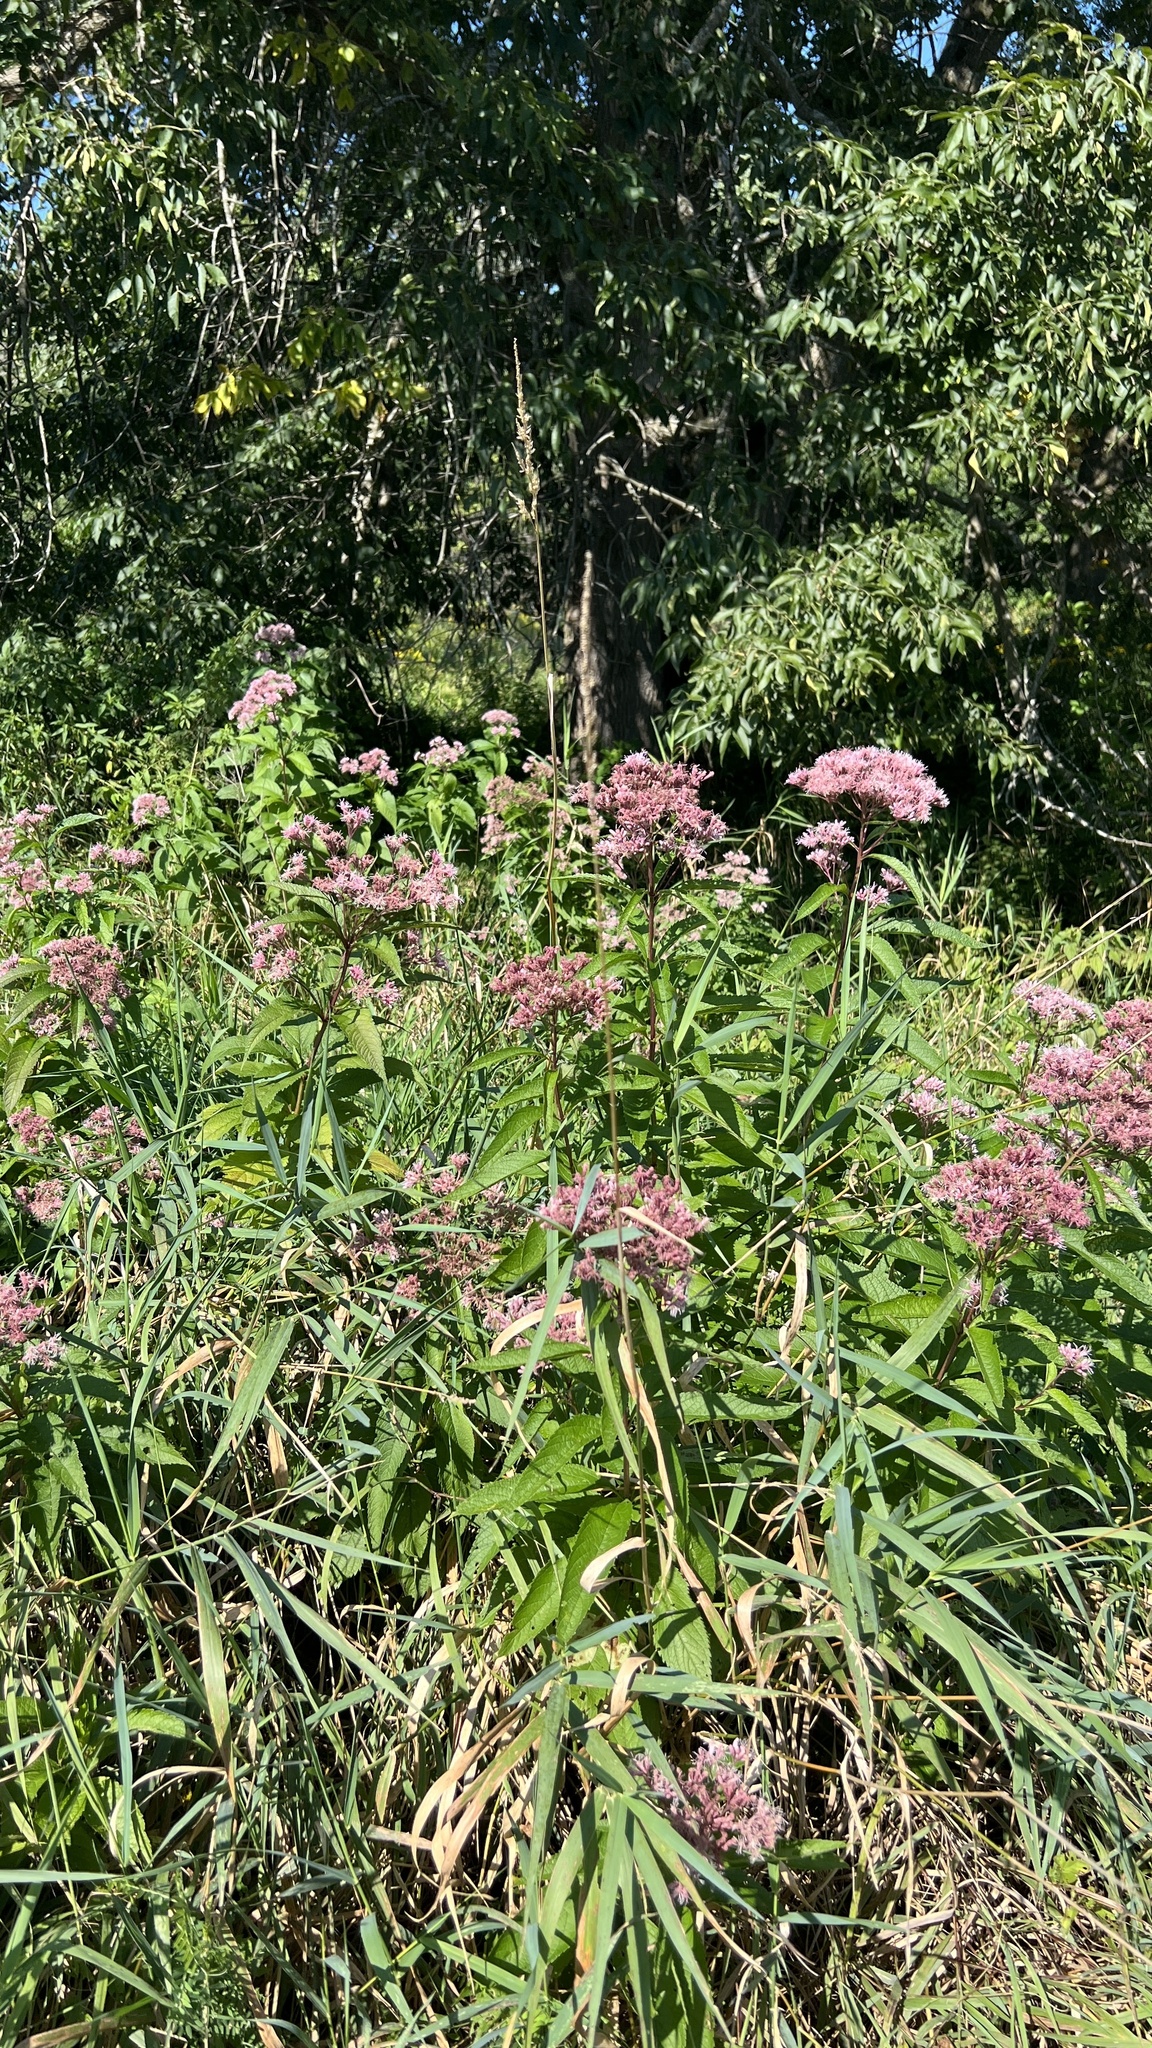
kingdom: Plantae
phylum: Tracheophyta
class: Magnoliopsida
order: Asterales
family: Asteraceae
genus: Eutrochium
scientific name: Eutrochium maculatum
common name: Spotted joe pye weed
